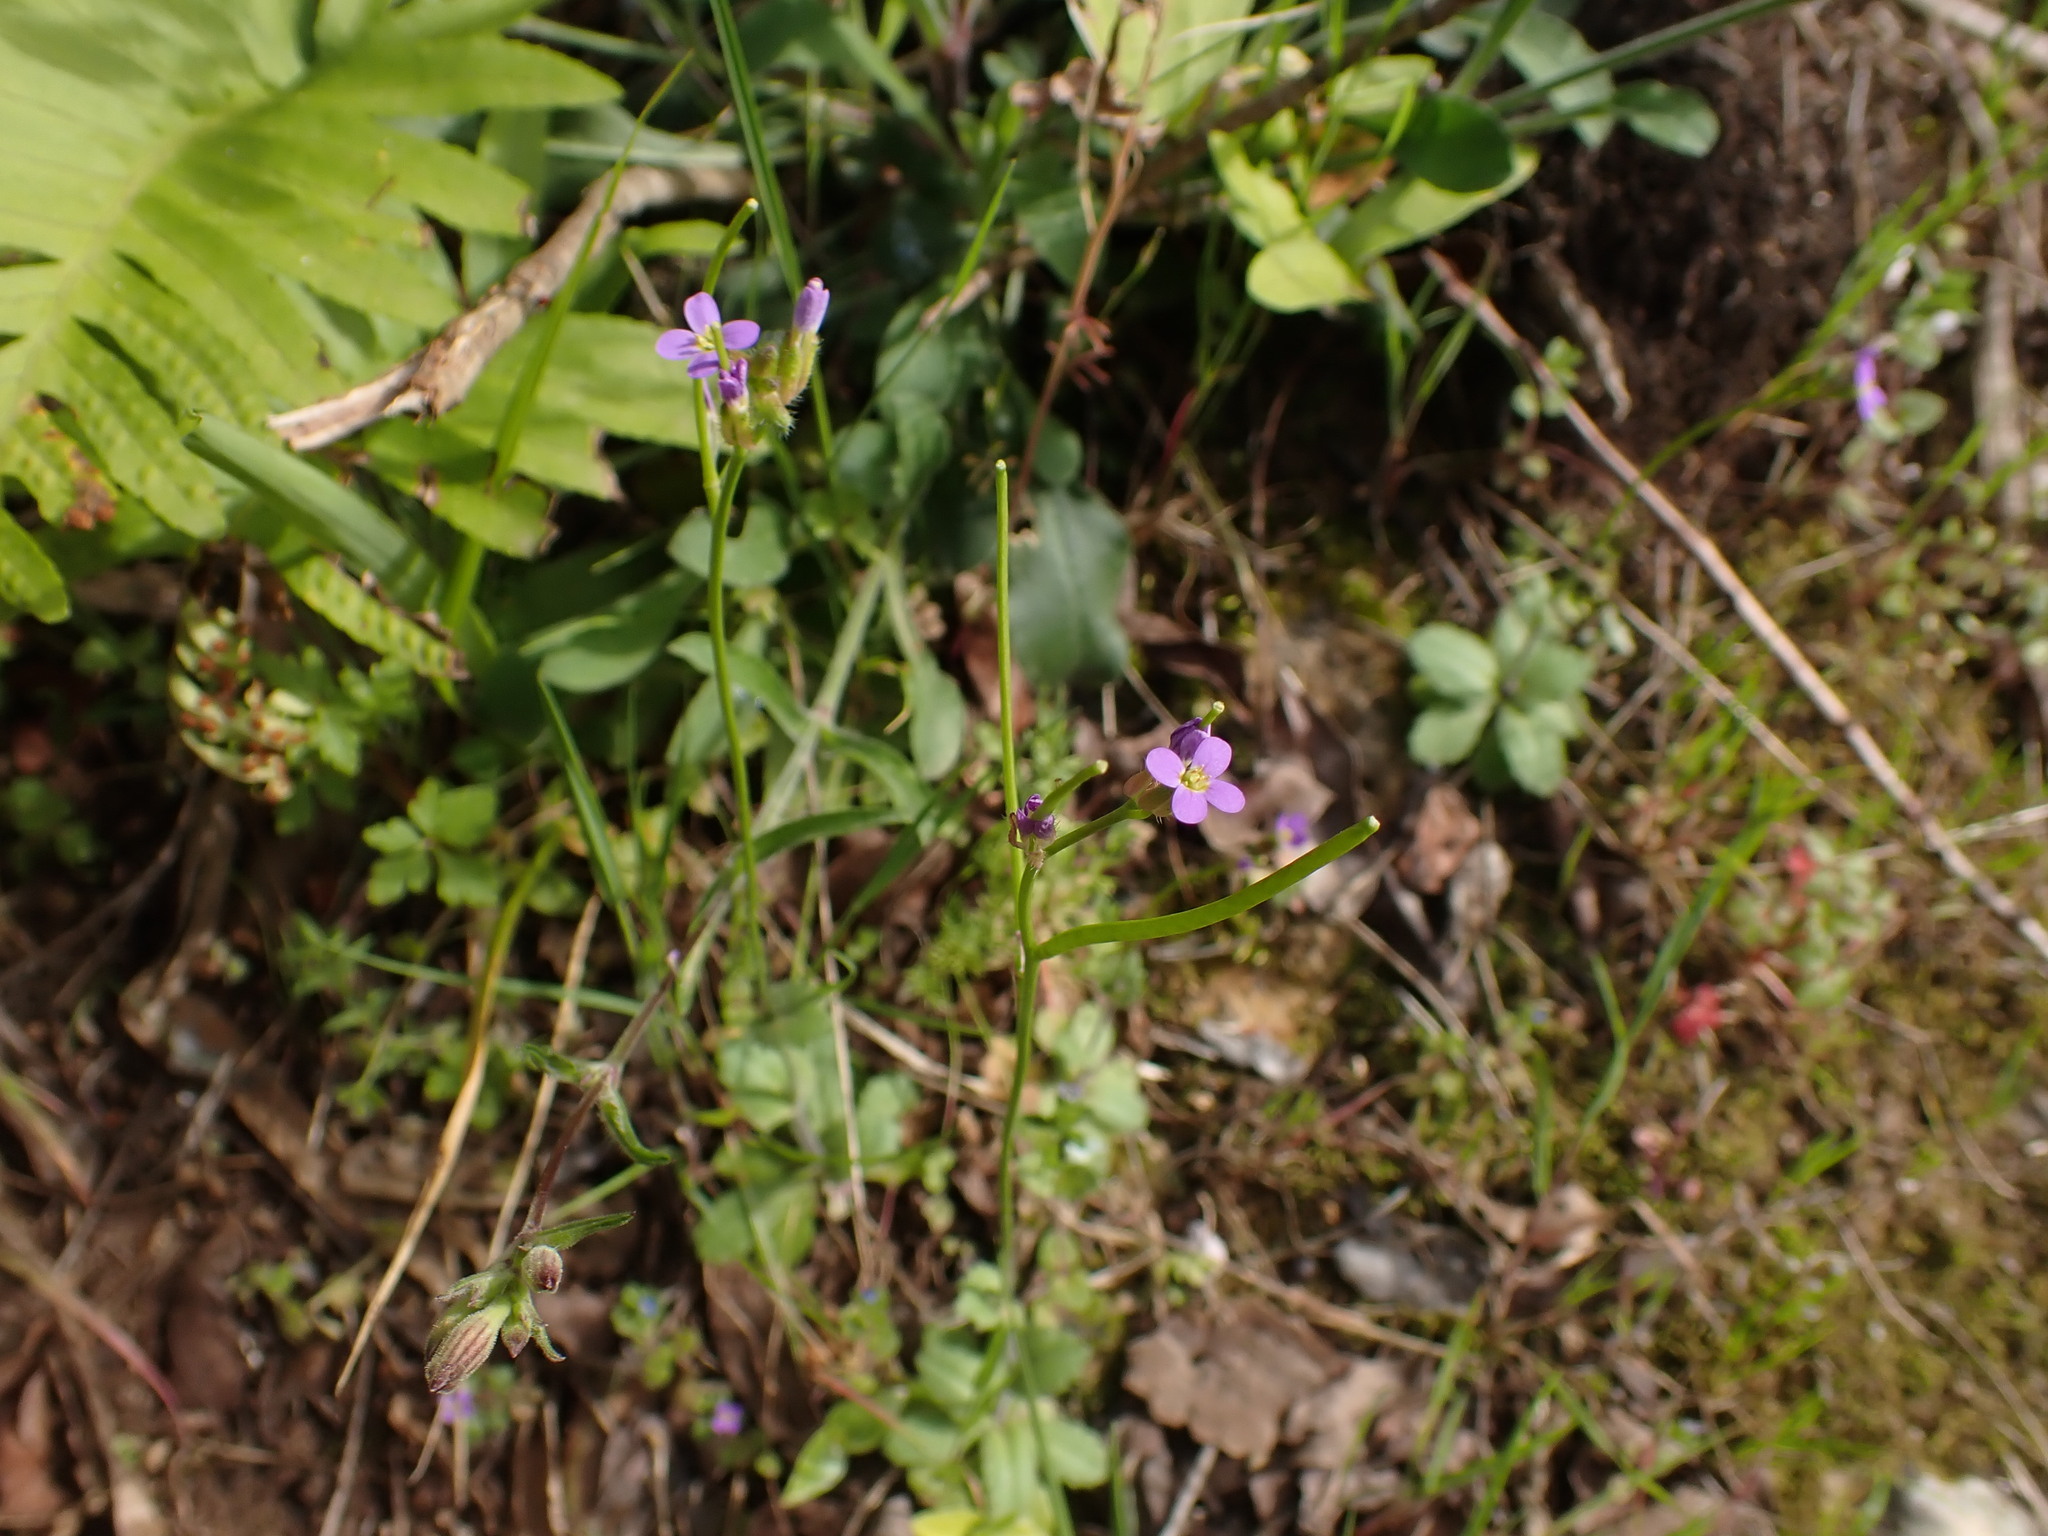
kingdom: Plantae
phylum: Tracheophyta
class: Magnoliopsida
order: Brassicales
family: Brassicaceae
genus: Arabis
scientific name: Arabis verna
